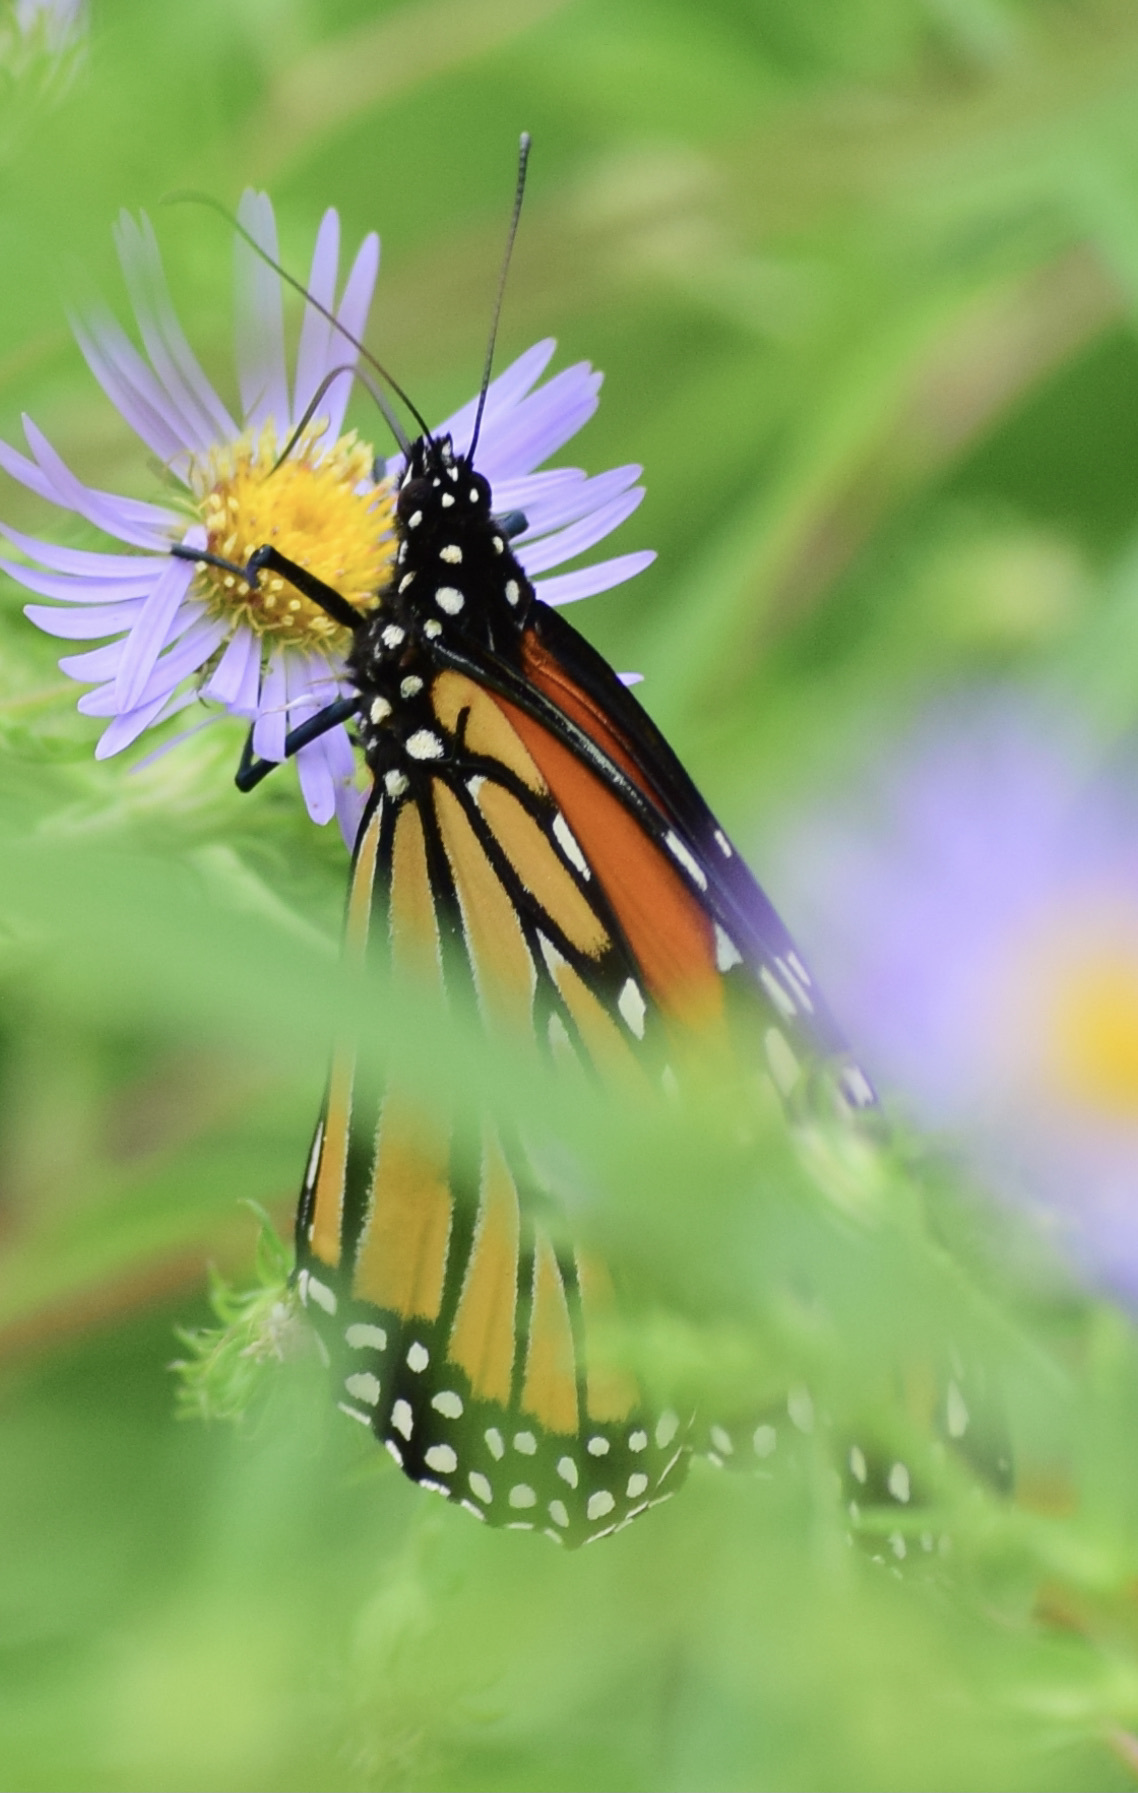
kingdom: Animalia
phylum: Arthropoda
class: Insecta
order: Lepidoptera
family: Nymphalidae
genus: Danaus
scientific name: Danaus plexippus
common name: Monarch
